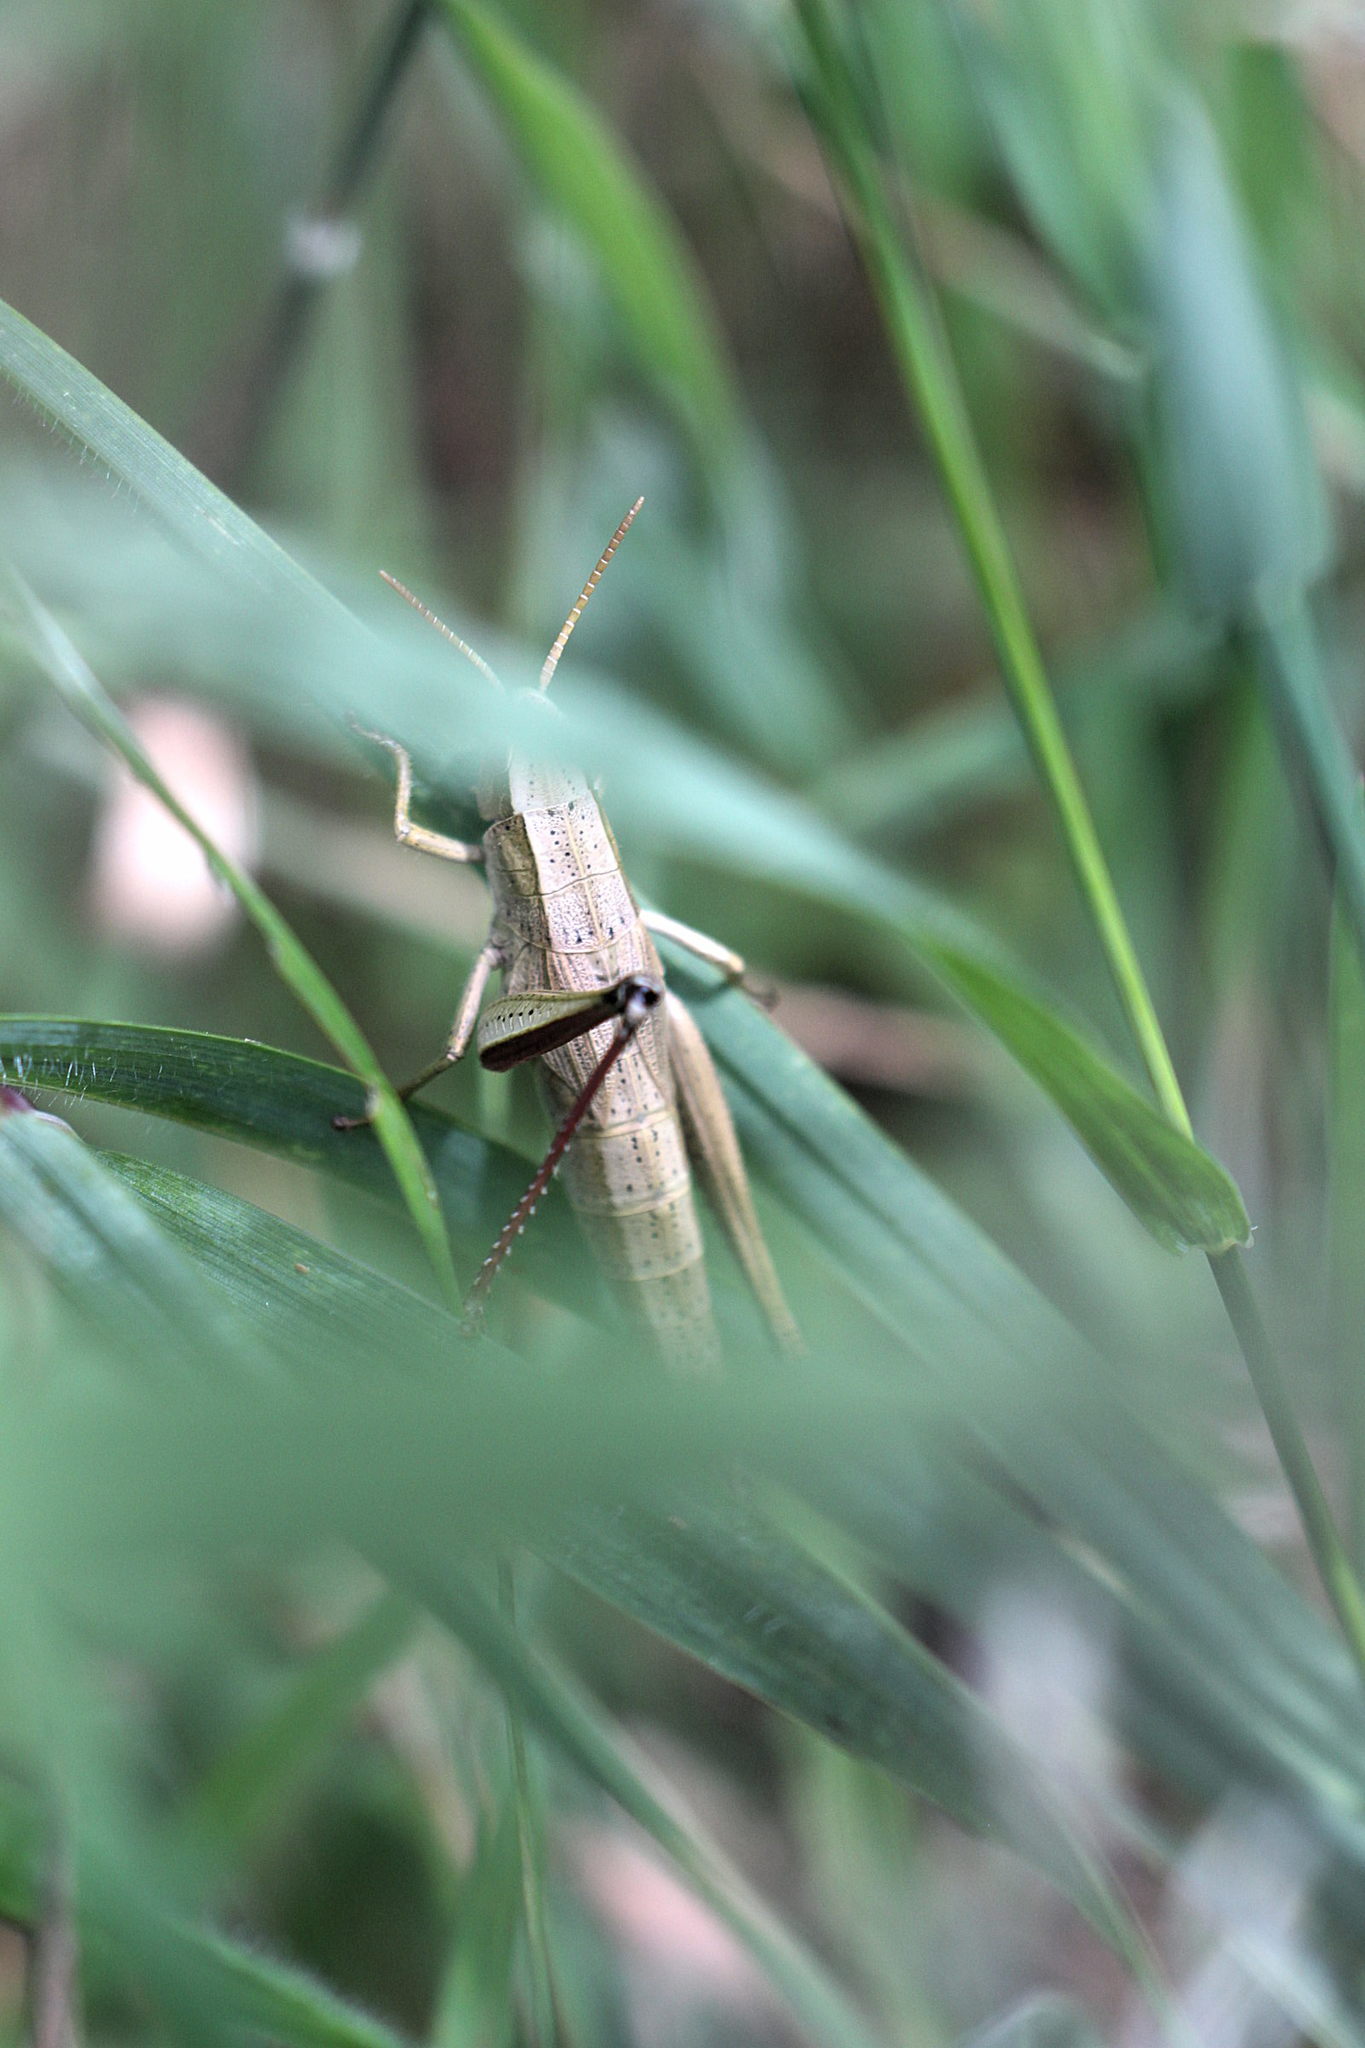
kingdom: Animalia
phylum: Arthropoda
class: Insecta
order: Orthoptera
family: Acrididae
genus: Chrysochraon
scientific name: Chrysochraon dispar
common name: Large gold grasshopper
